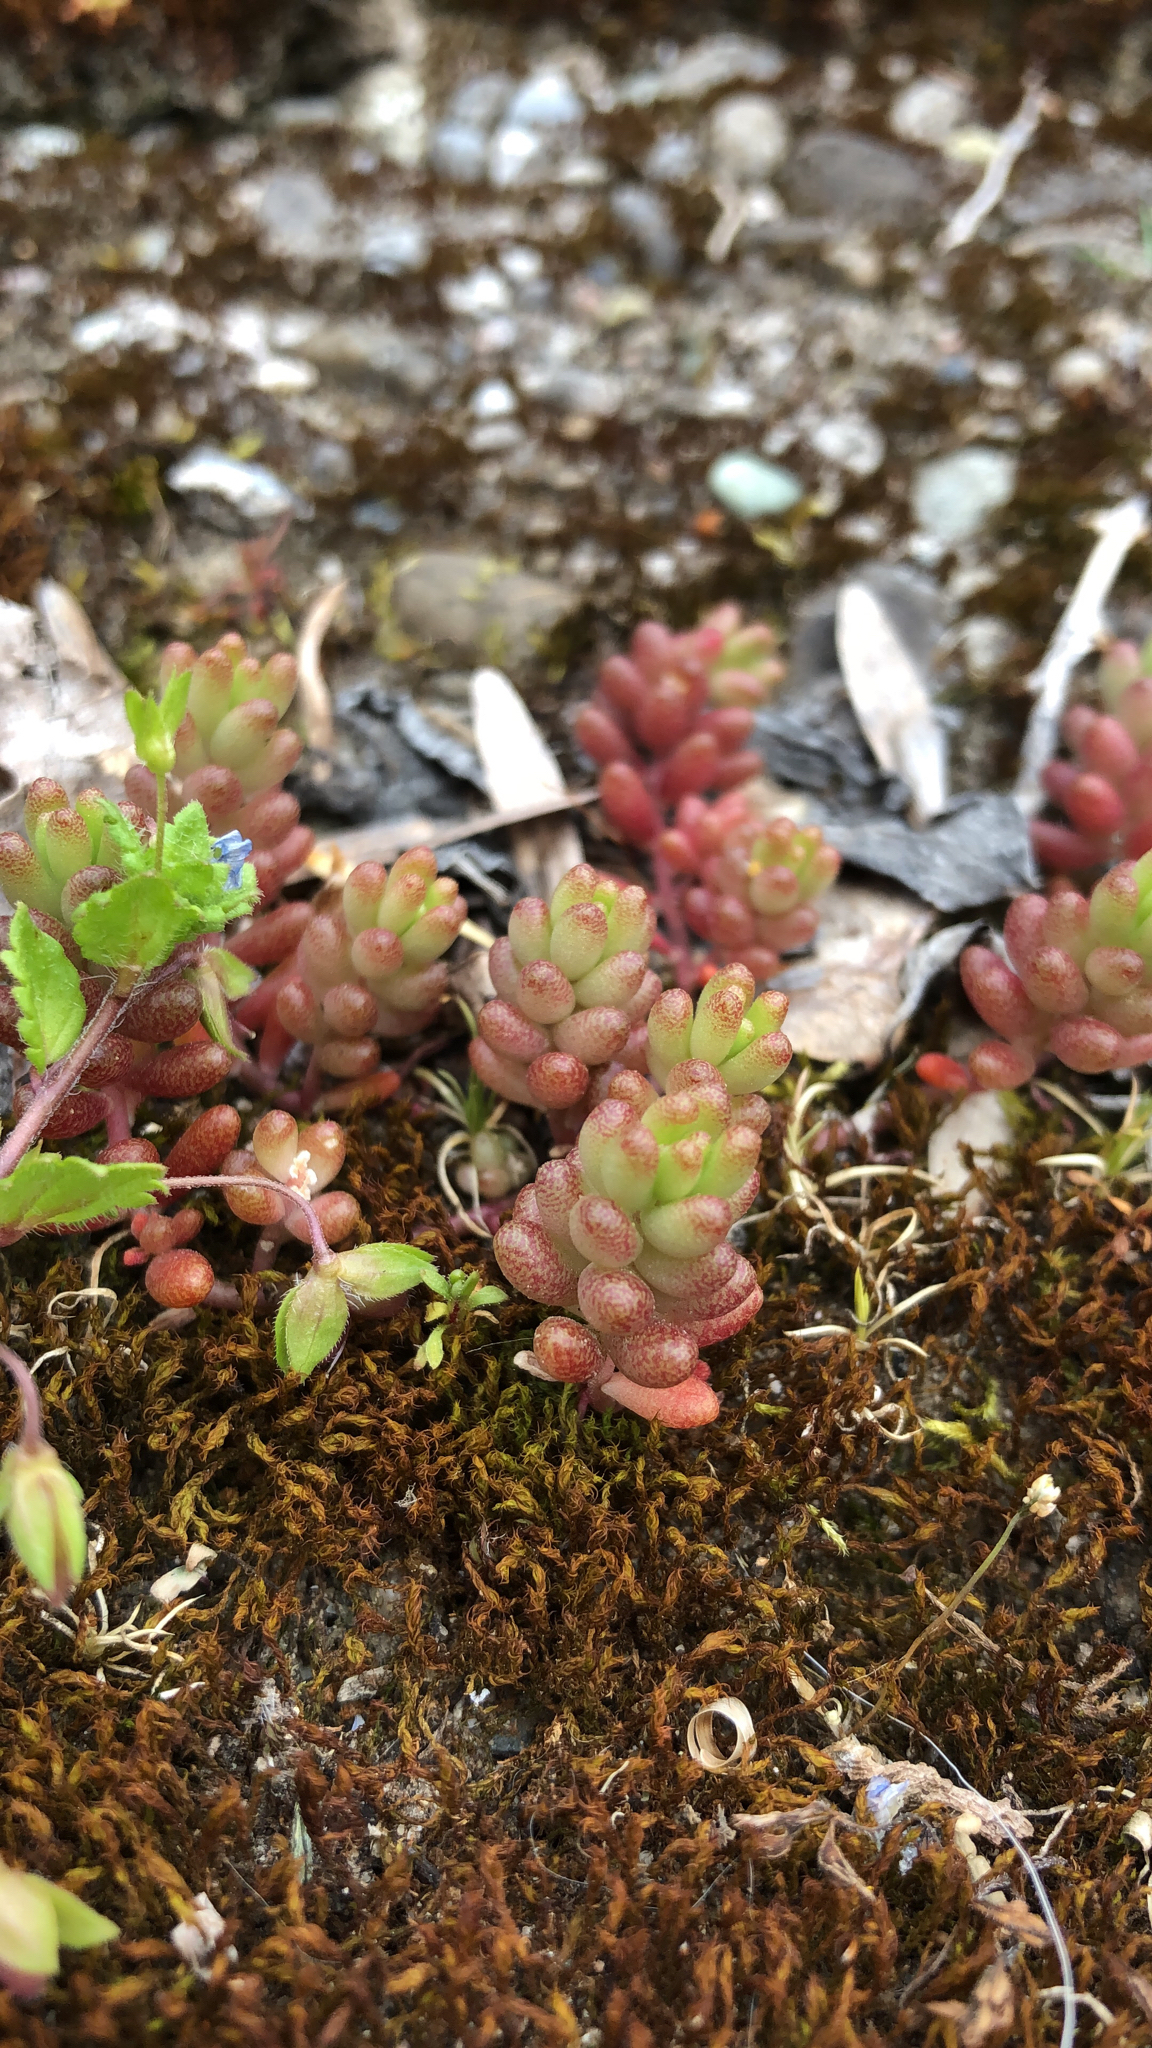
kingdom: Plantae
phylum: Tracheophyta
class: Magnoliopsida
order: Saxifragales
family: Crassulaceae
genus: Sedum
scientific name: Sedum album
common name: White stonecrop
